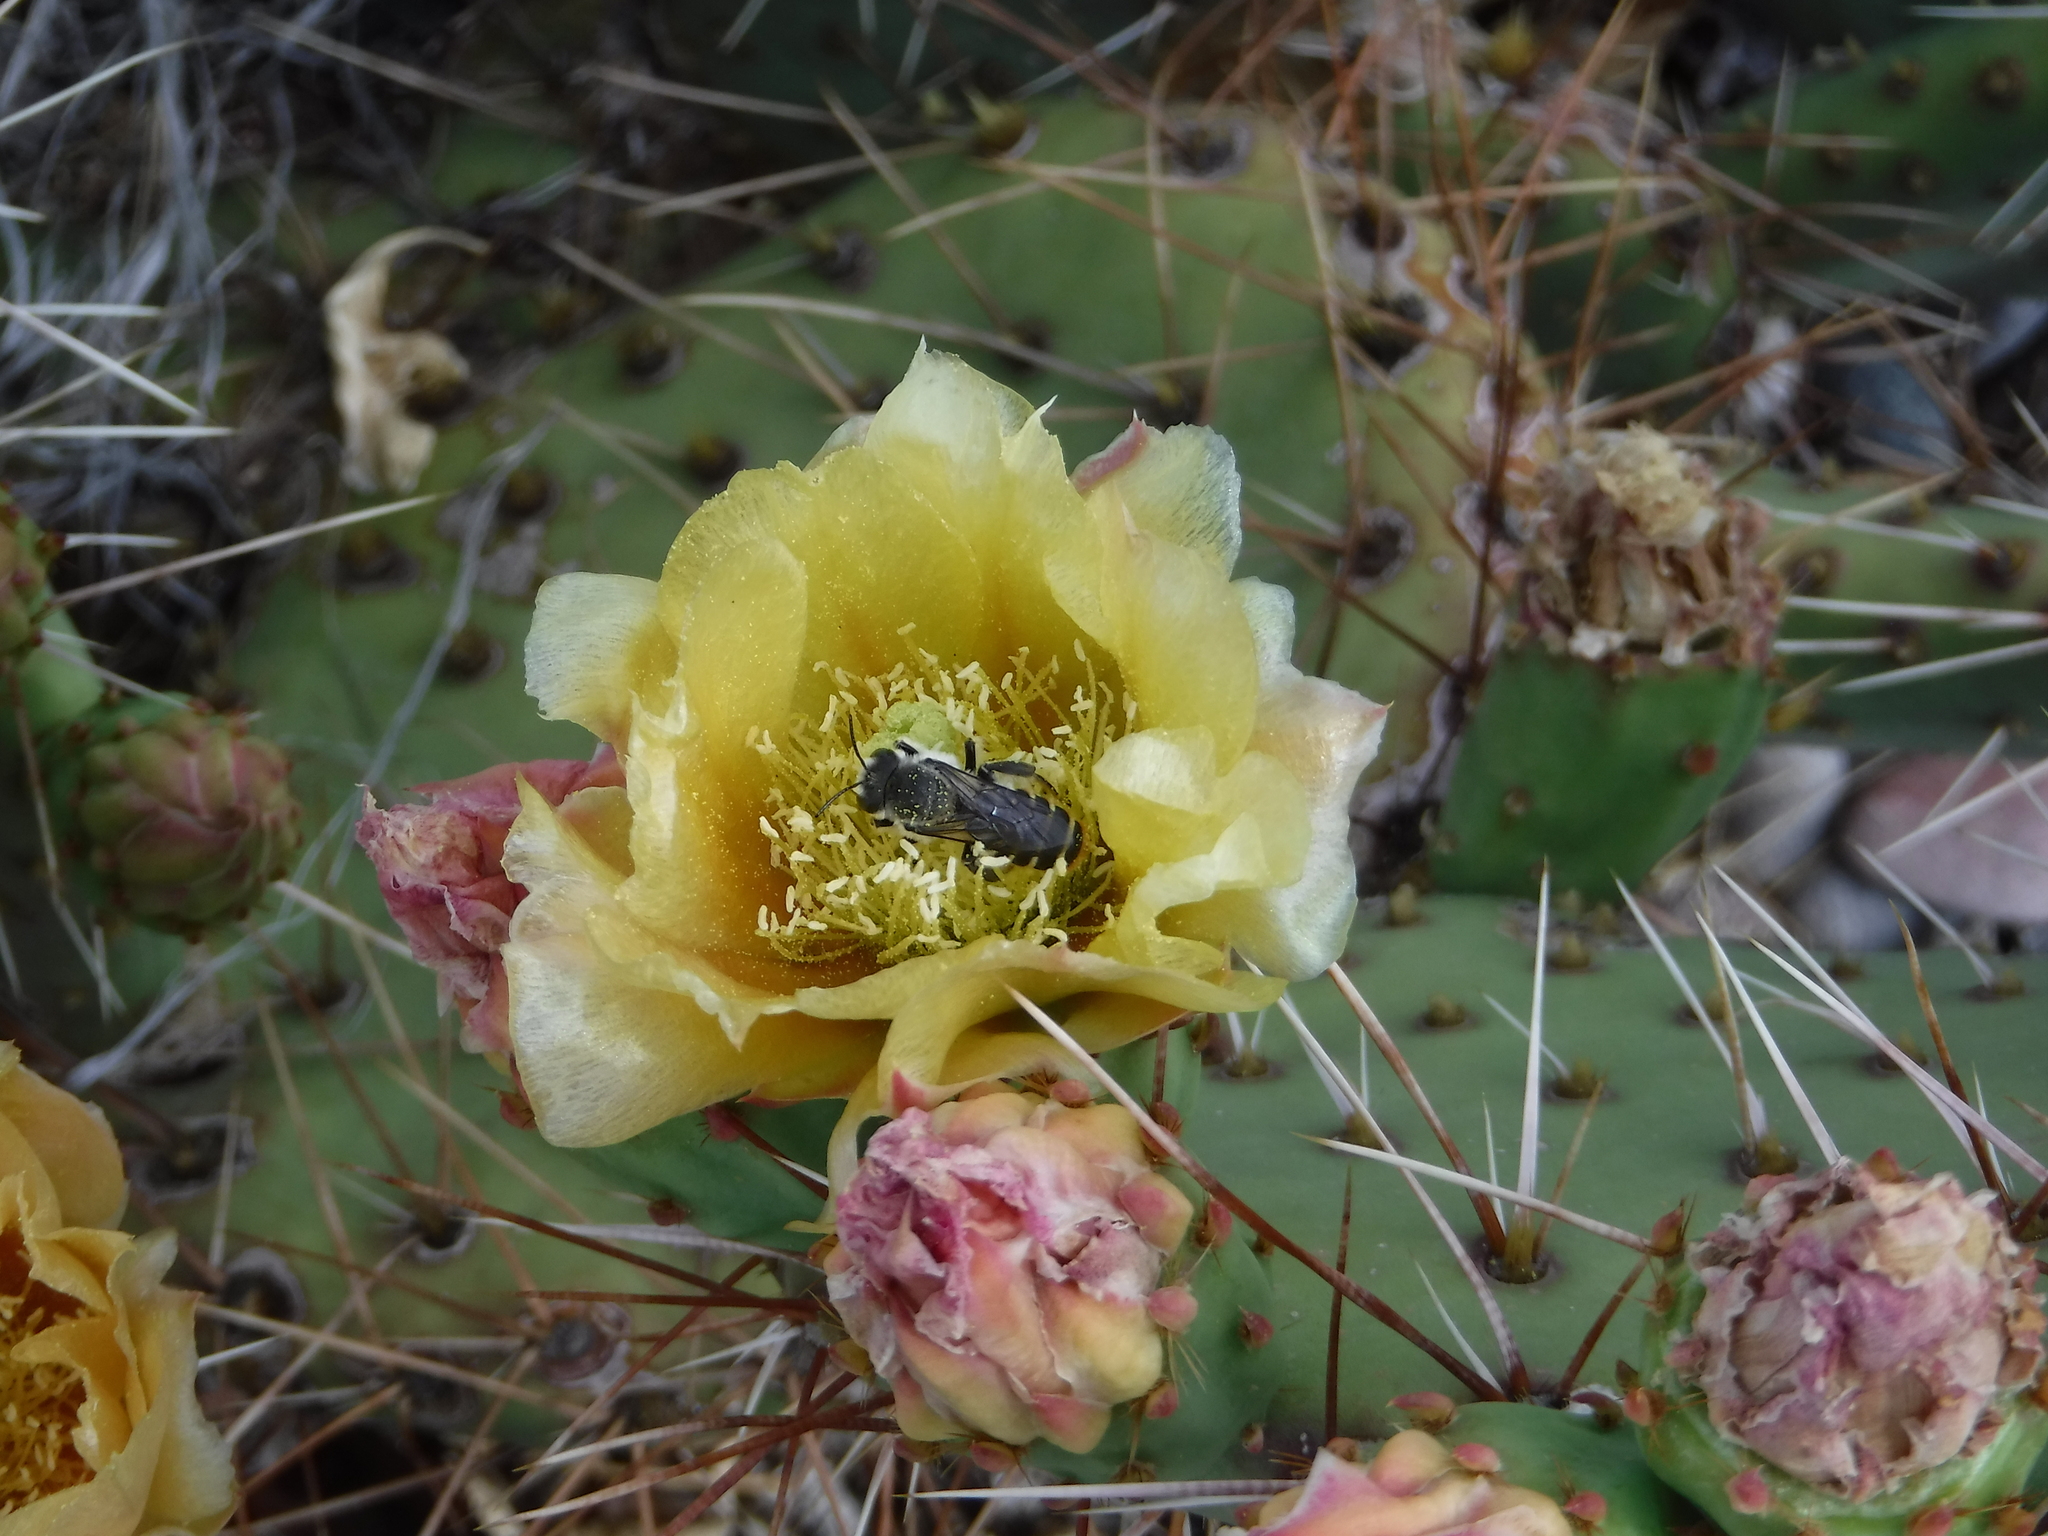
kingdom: Animalia
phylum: Arthropoda
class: Insecta
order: Hymenoptera
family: Megachilidae
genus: Lithurgopsis
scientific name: Lithurgopsis apicalis
